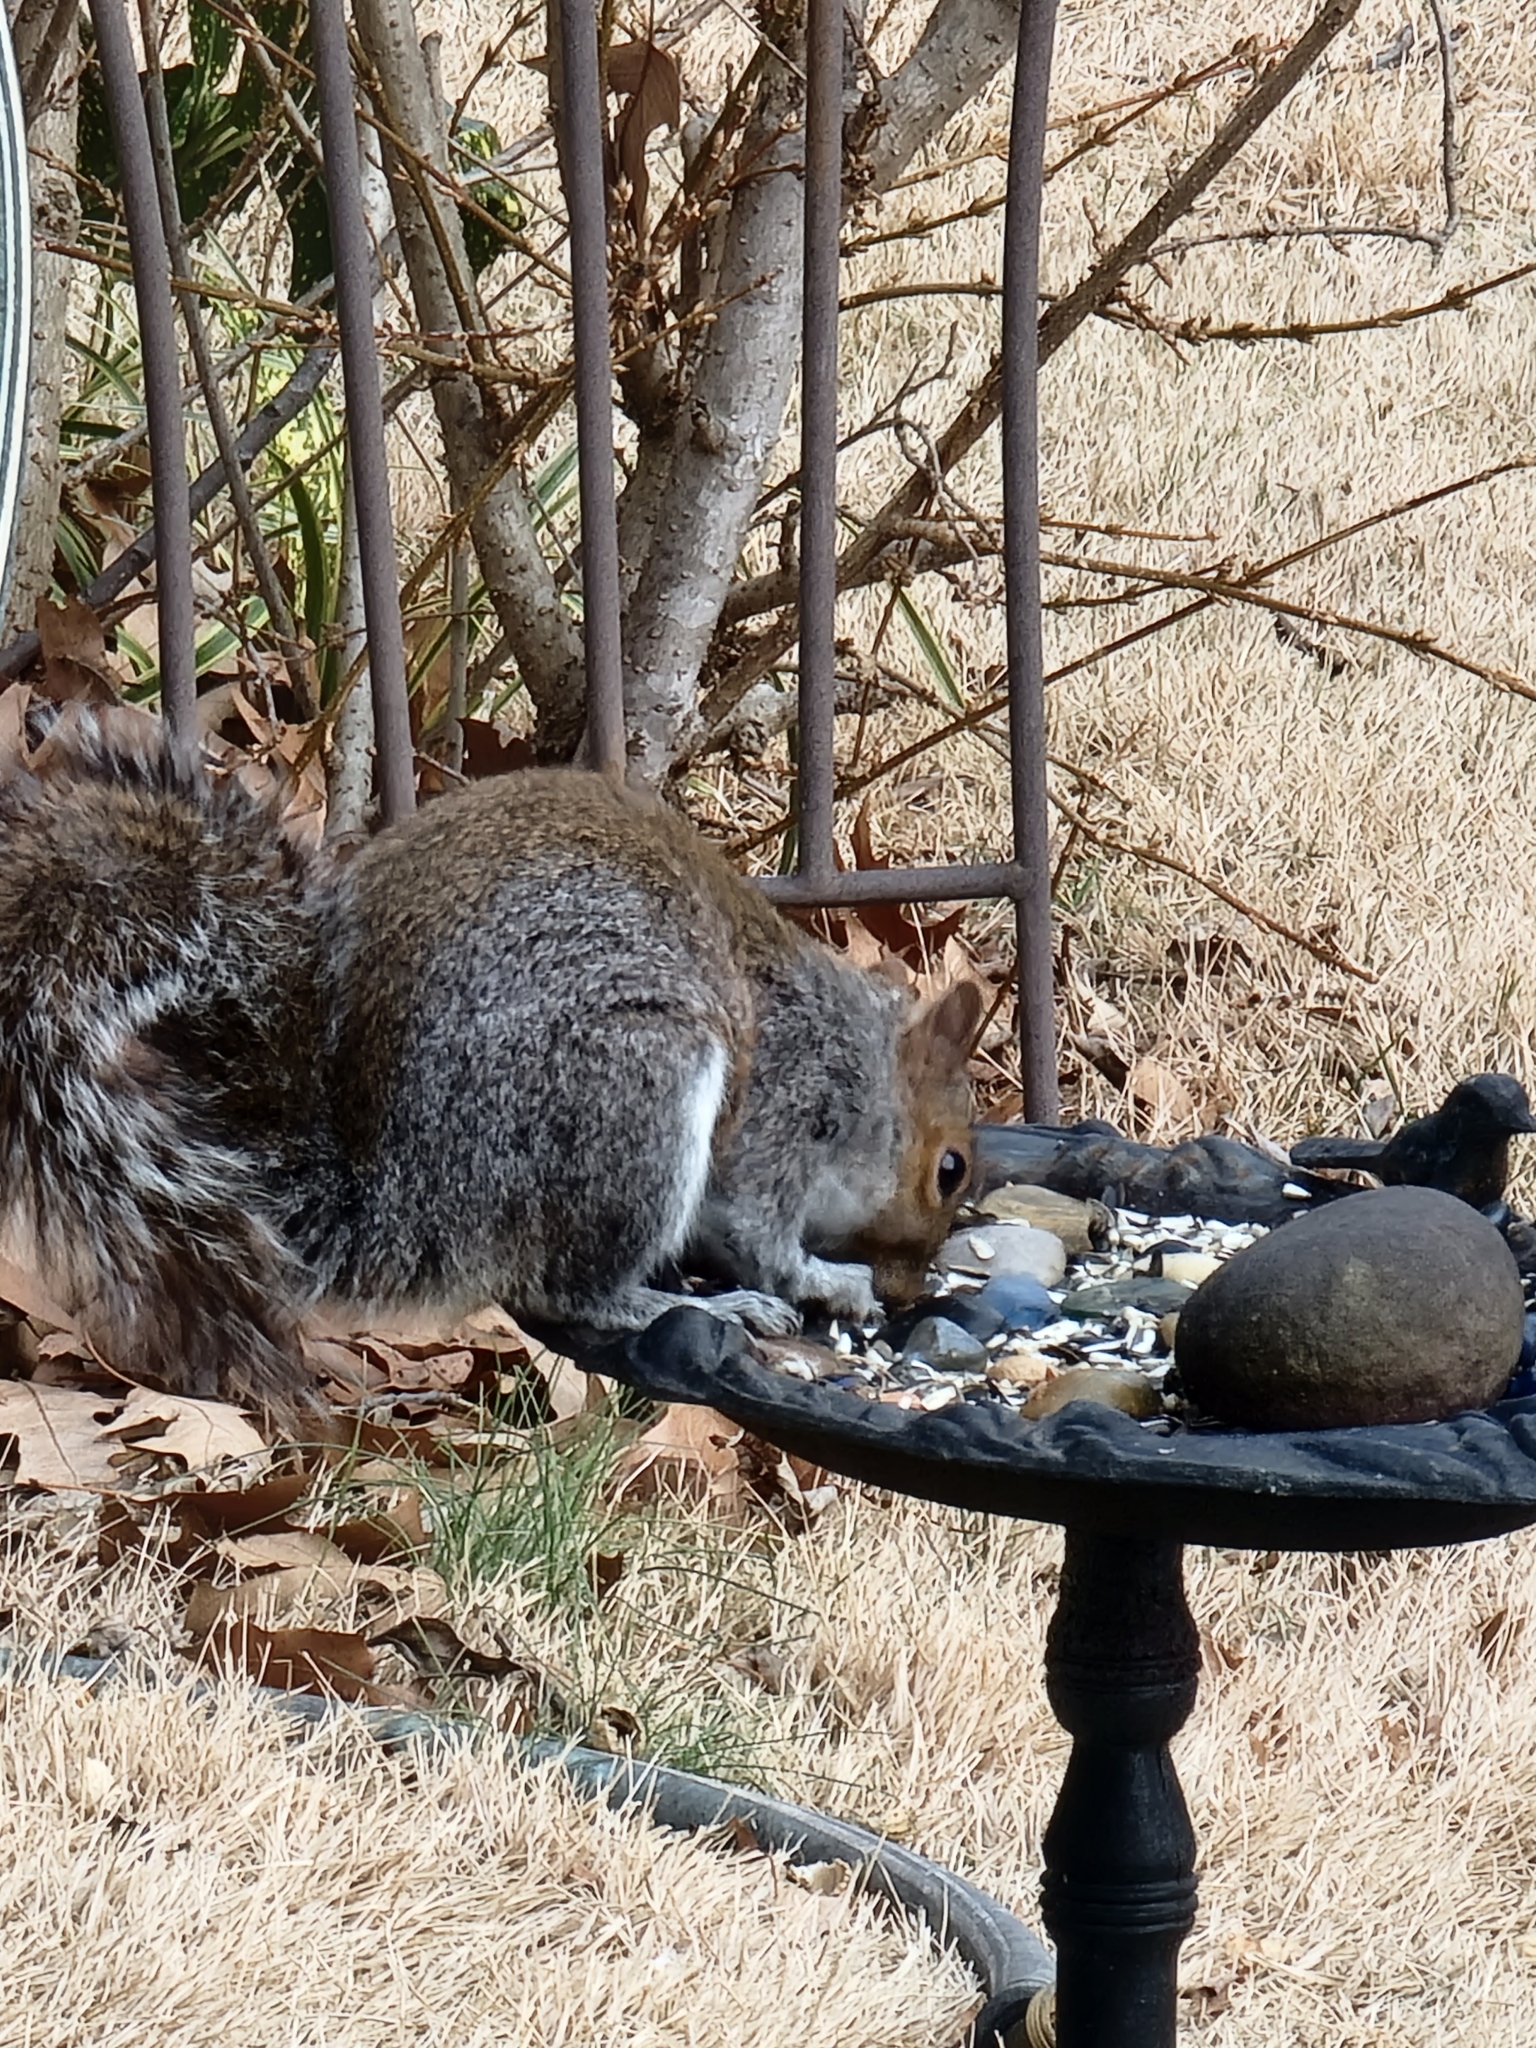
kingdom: Animalia
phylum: Chordata
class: Mammalia
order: Rodentia
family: Sciuridae
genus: Sciurus
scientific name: Sciurus carolinensis
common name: Eastern gray squirrel
